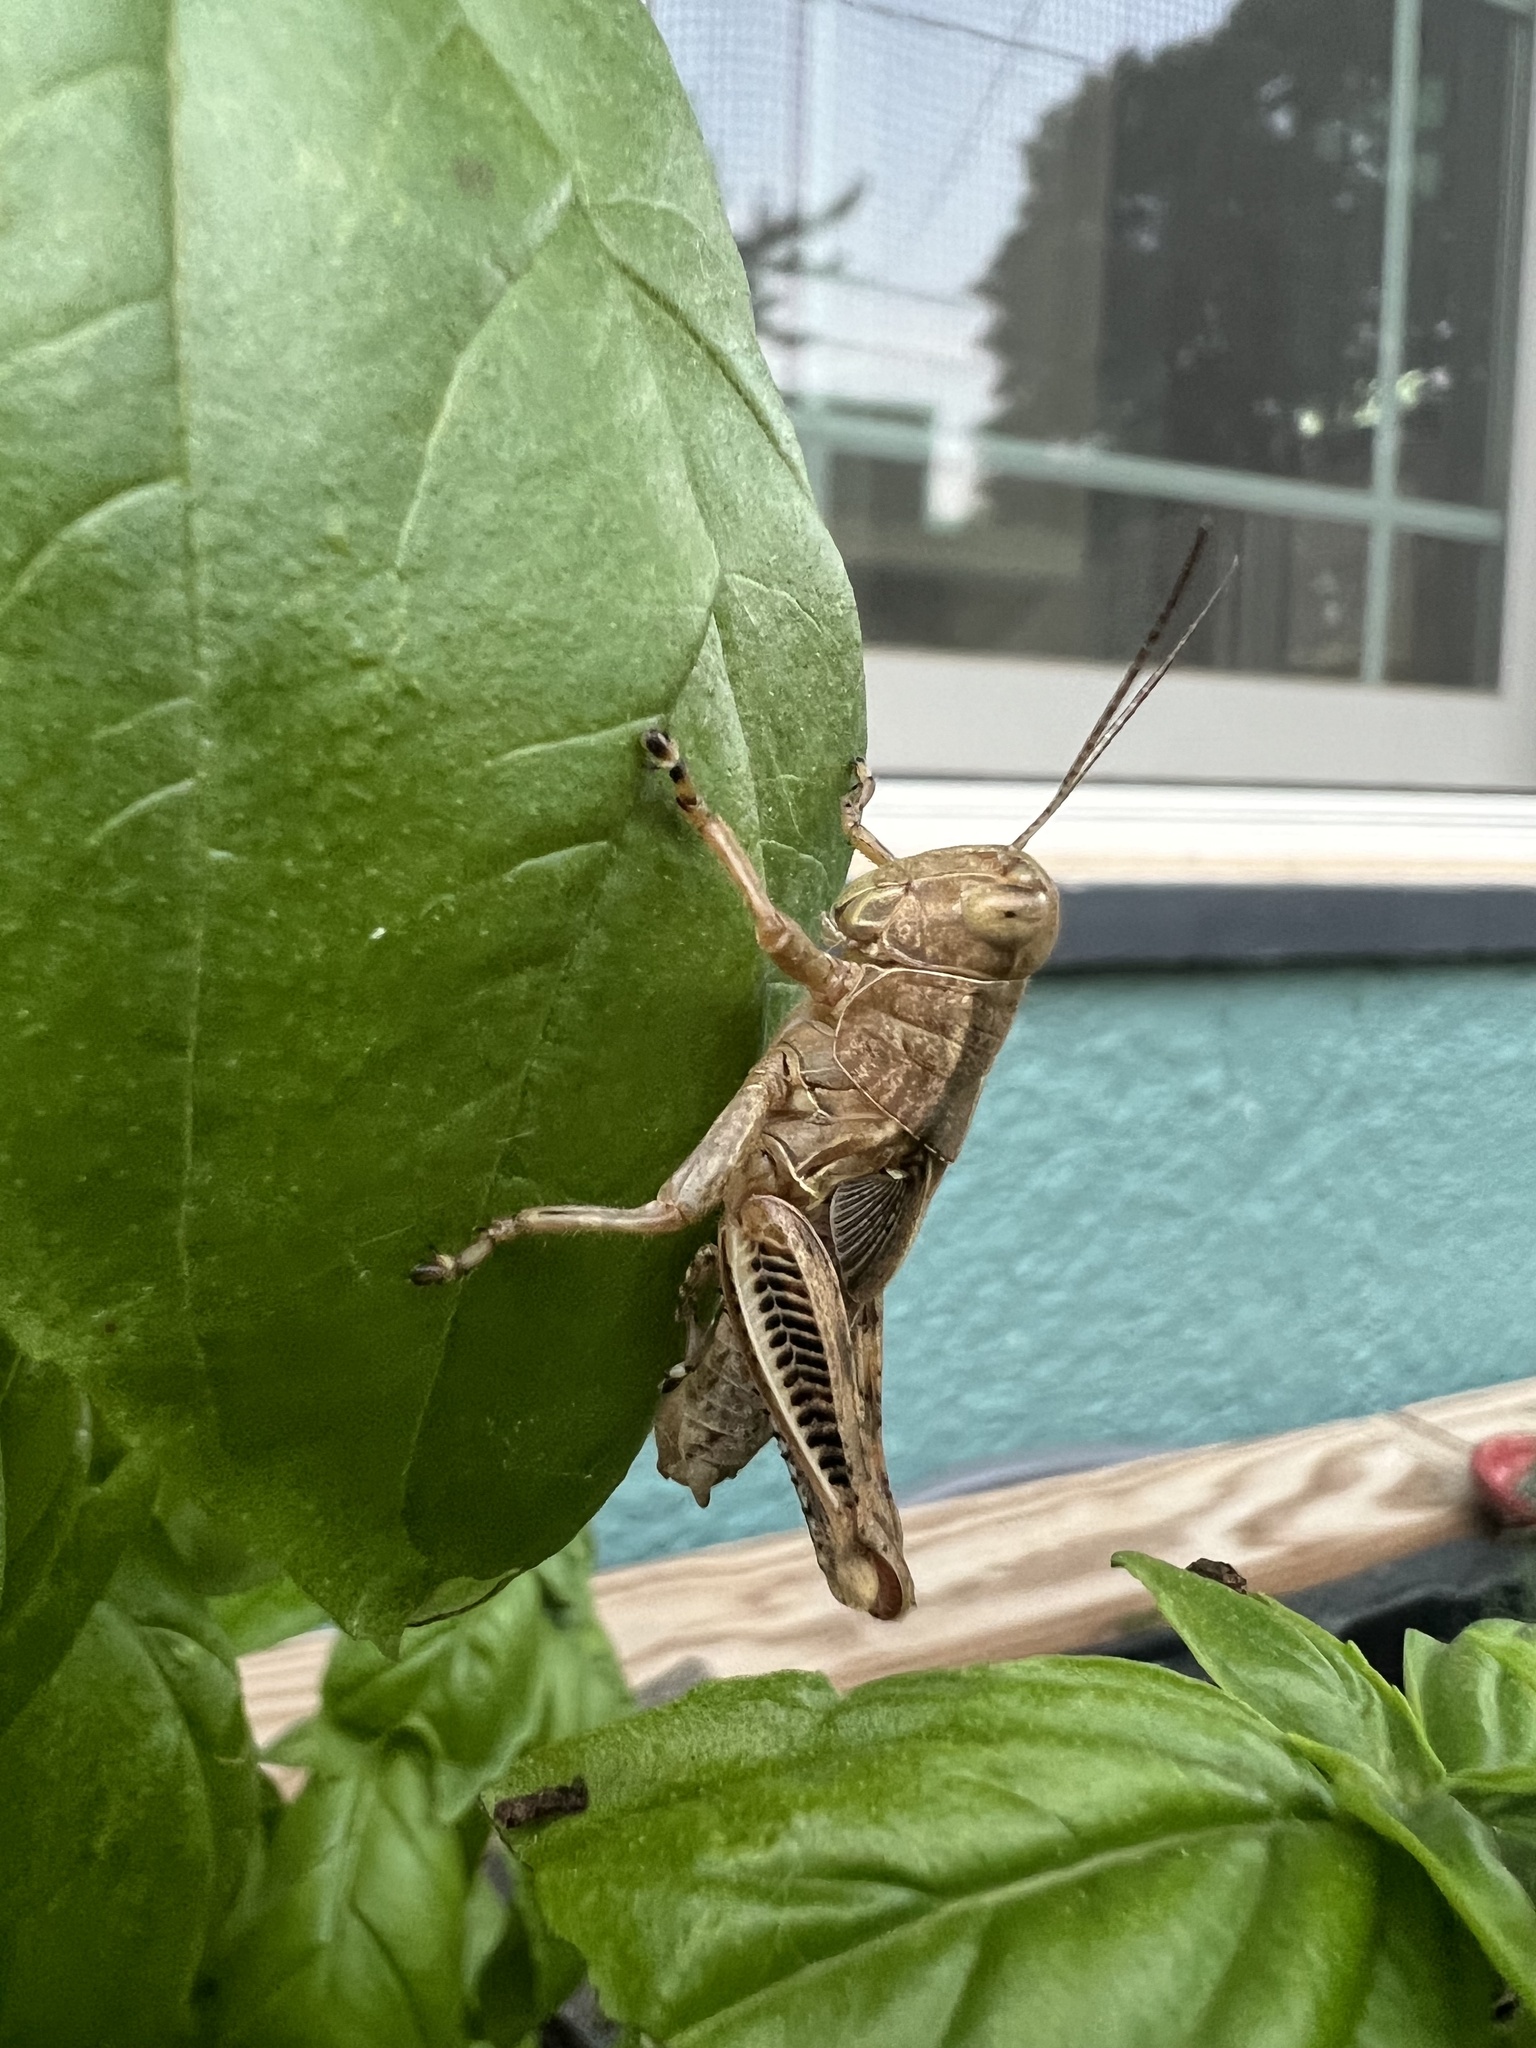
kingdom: Animalia
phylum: Arthropoda
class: Insecta
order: Orthoptera
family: Acrididae
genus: Melanoplus
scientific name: Melanoplus differentialis
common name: Differential grasshopper
